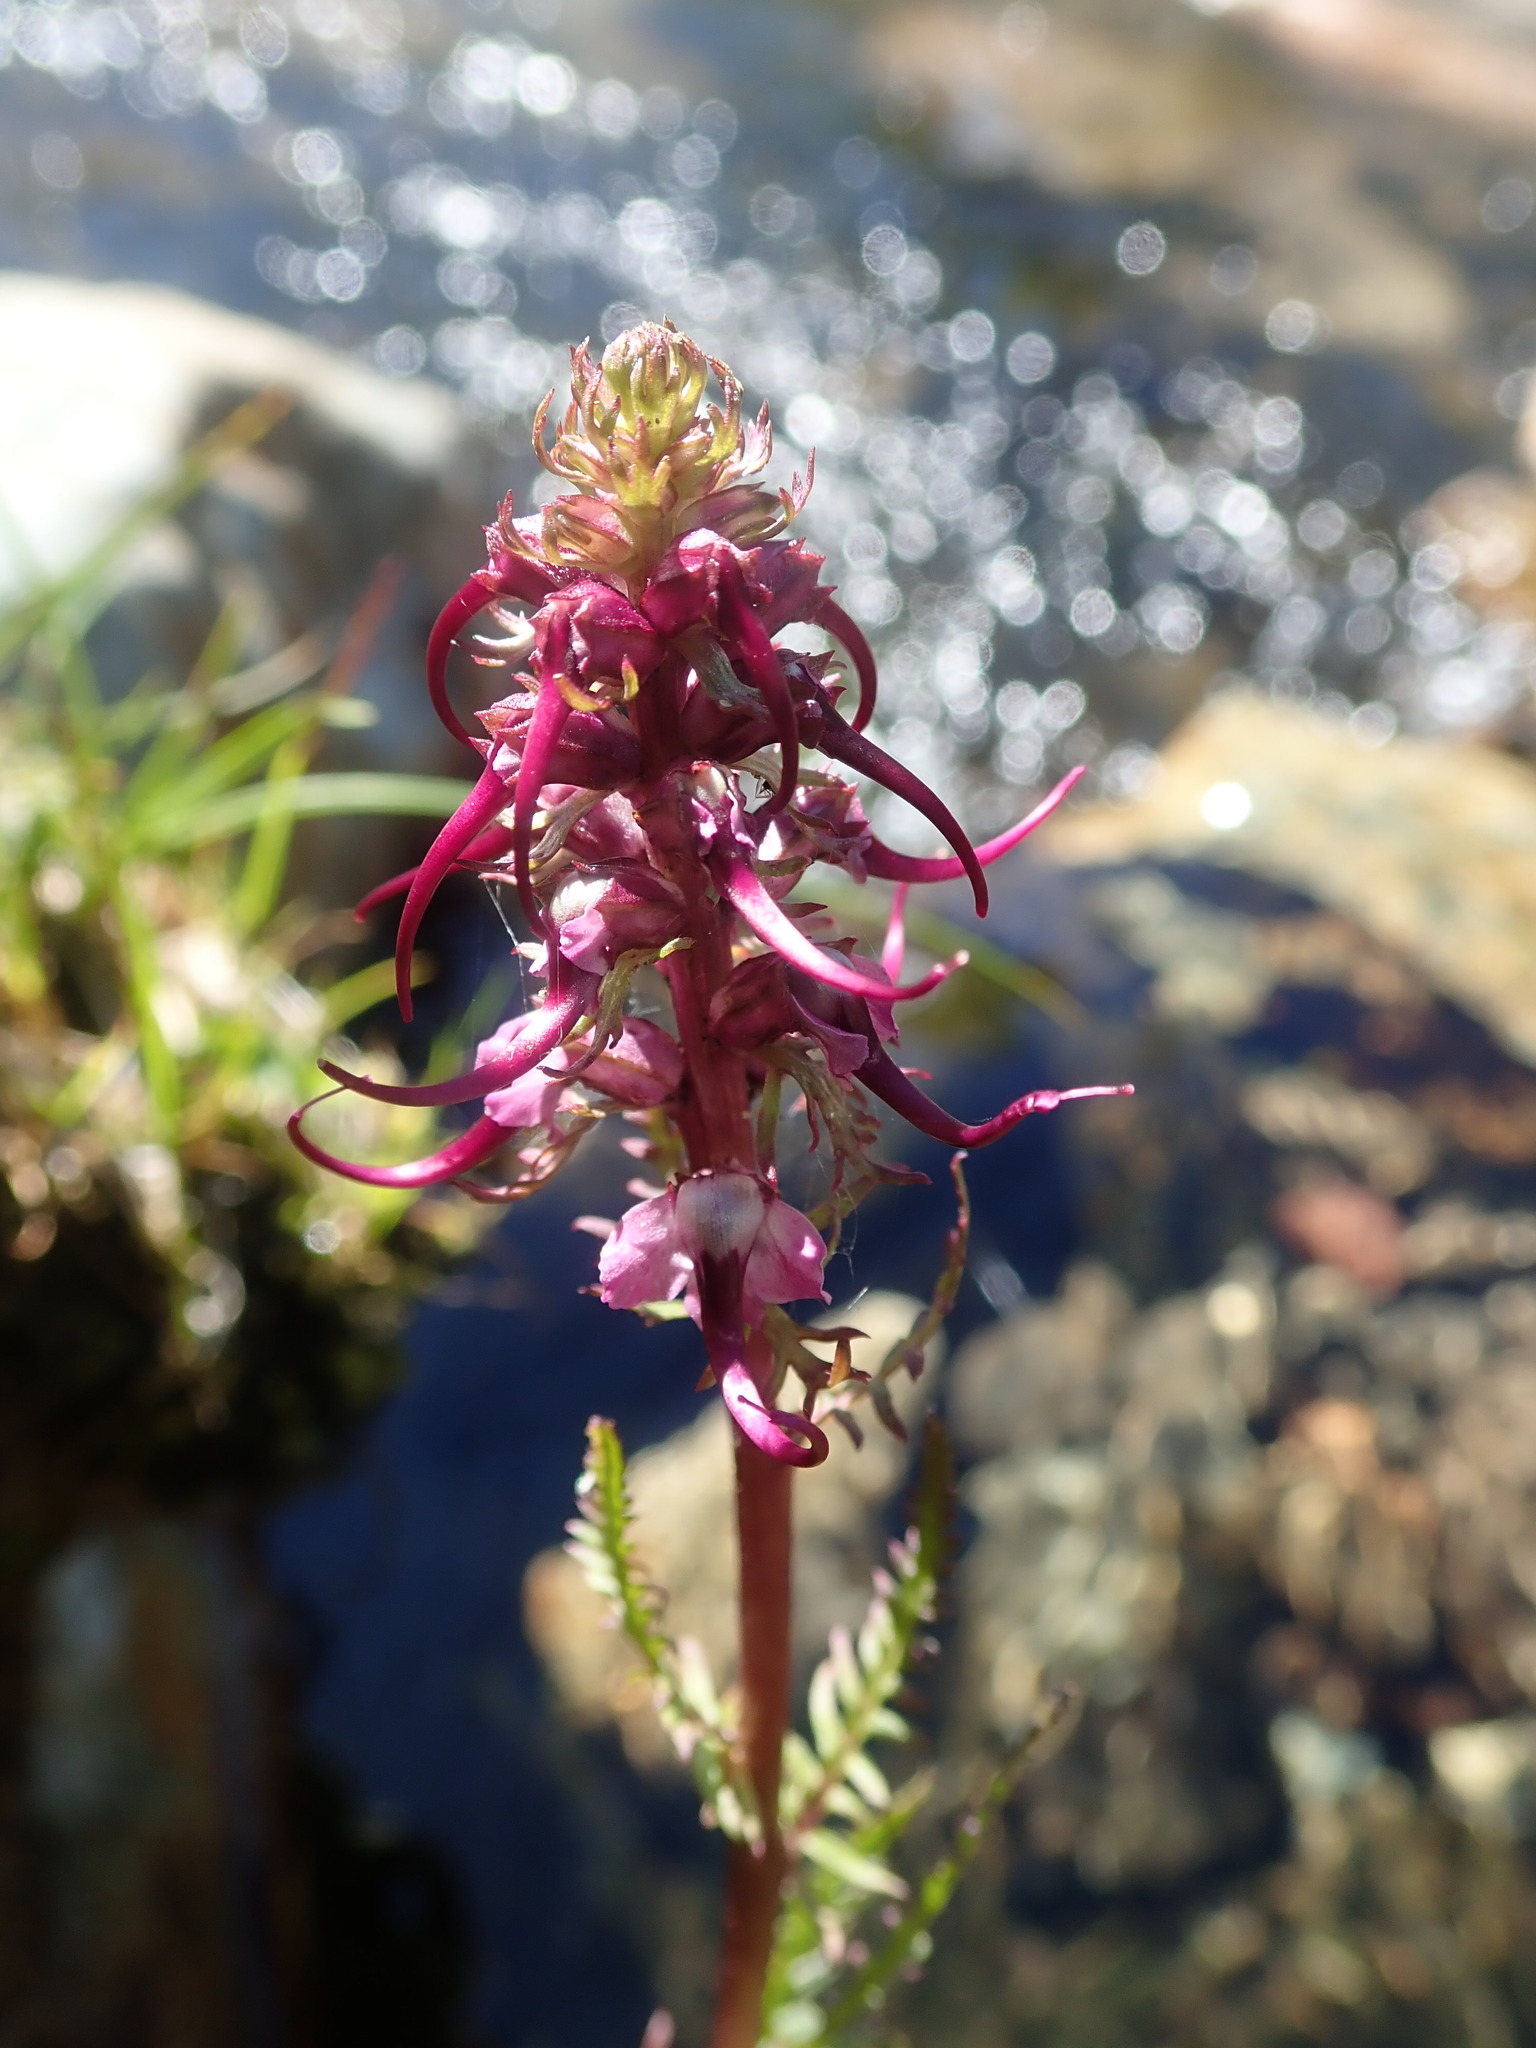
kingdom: Plantae
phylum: Tracheophyta
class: Magnoliopsida
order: Lamiales
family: Orobanchaceae
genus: Pedicularis
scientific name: Pedicularis groenlandica
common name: Elephant's-head
